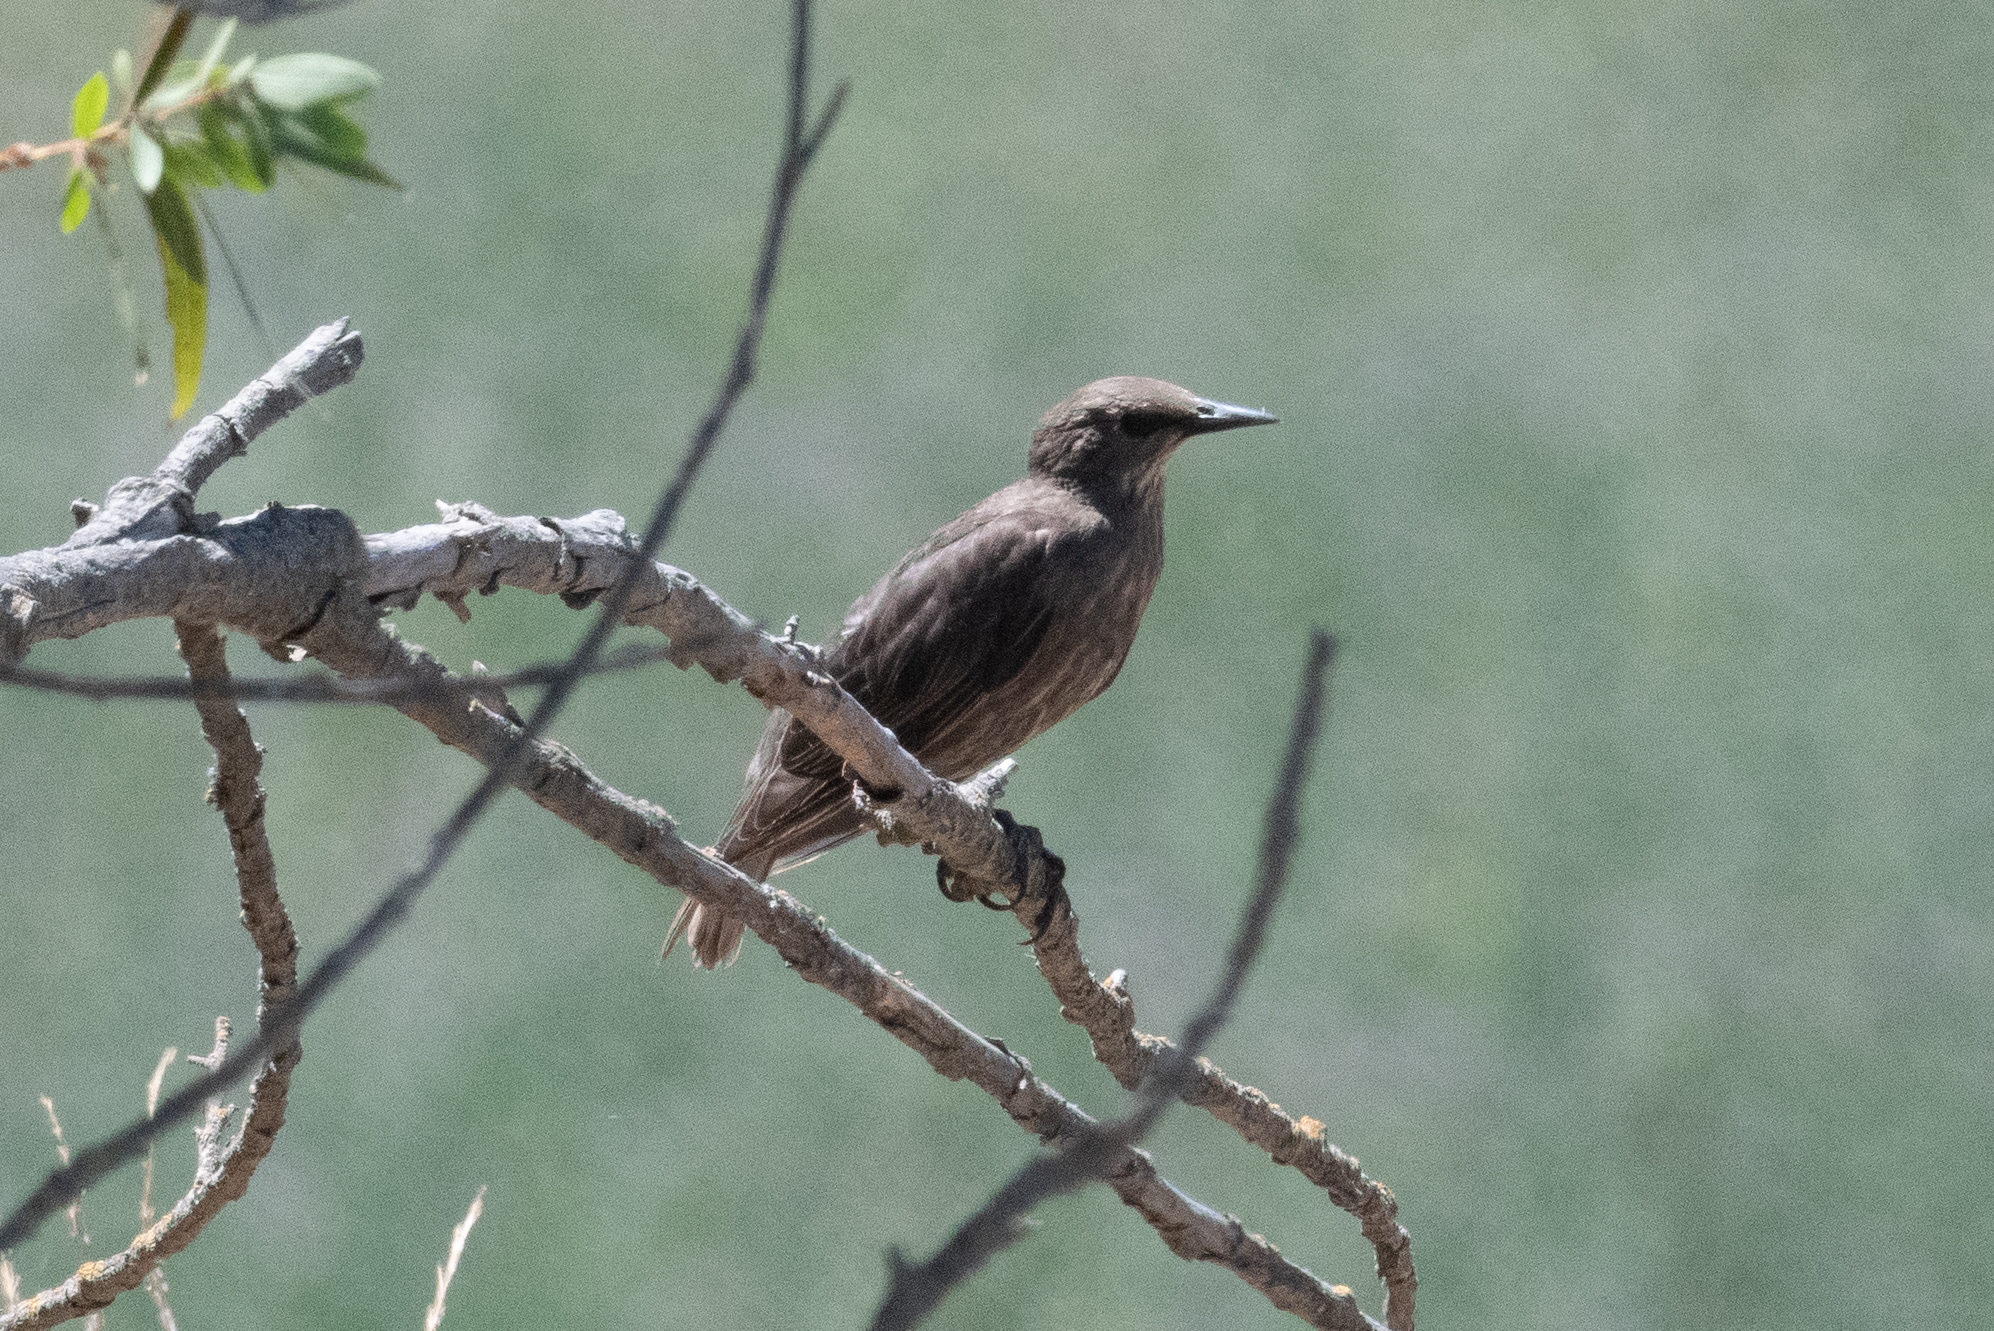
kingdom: Animalia
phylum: Chordata
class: Aves
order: Passeriformes
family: Sturnidae
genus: Sturnus
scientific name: Sturnus vulgaris
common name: Common starling
